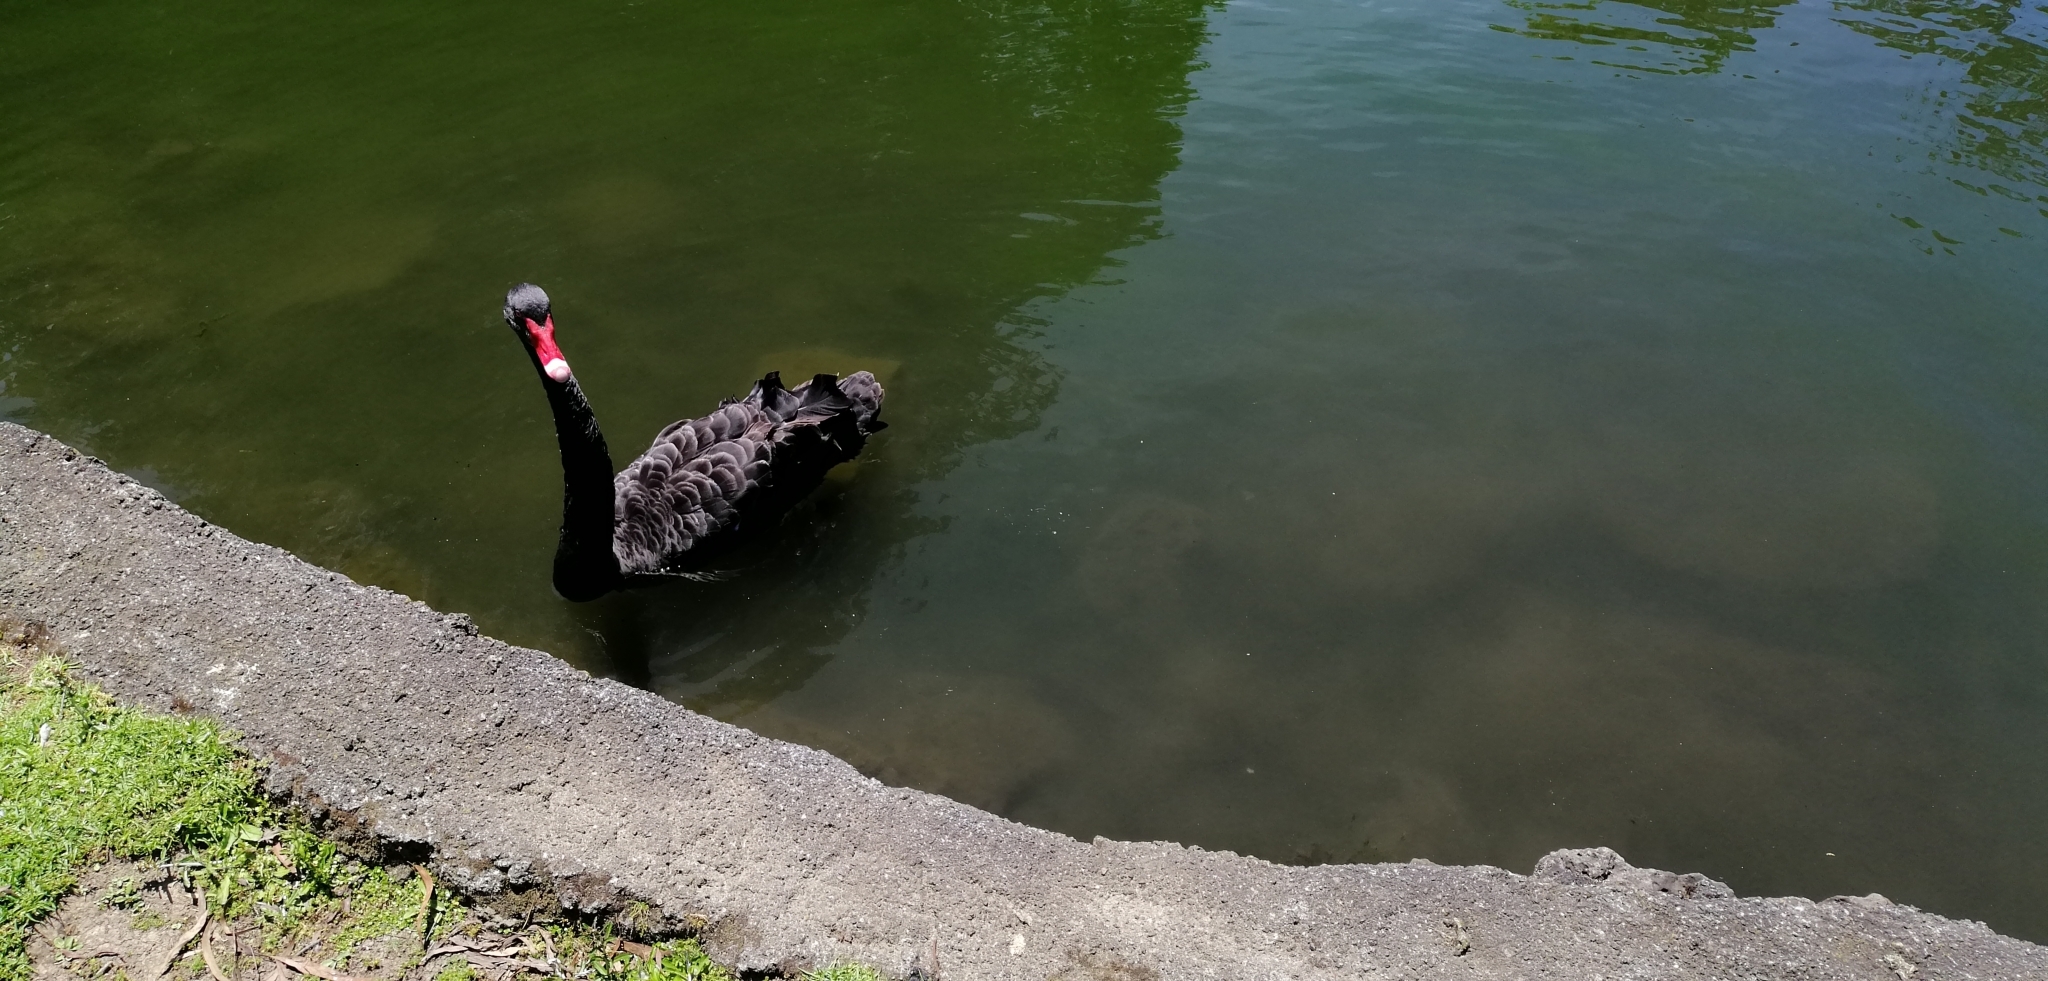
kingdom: Animalia
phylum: Chordata
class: Aves
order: Anseriformes
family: Anatidae
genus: Cygnus
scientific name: Cygnus atratus
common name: Black swan
